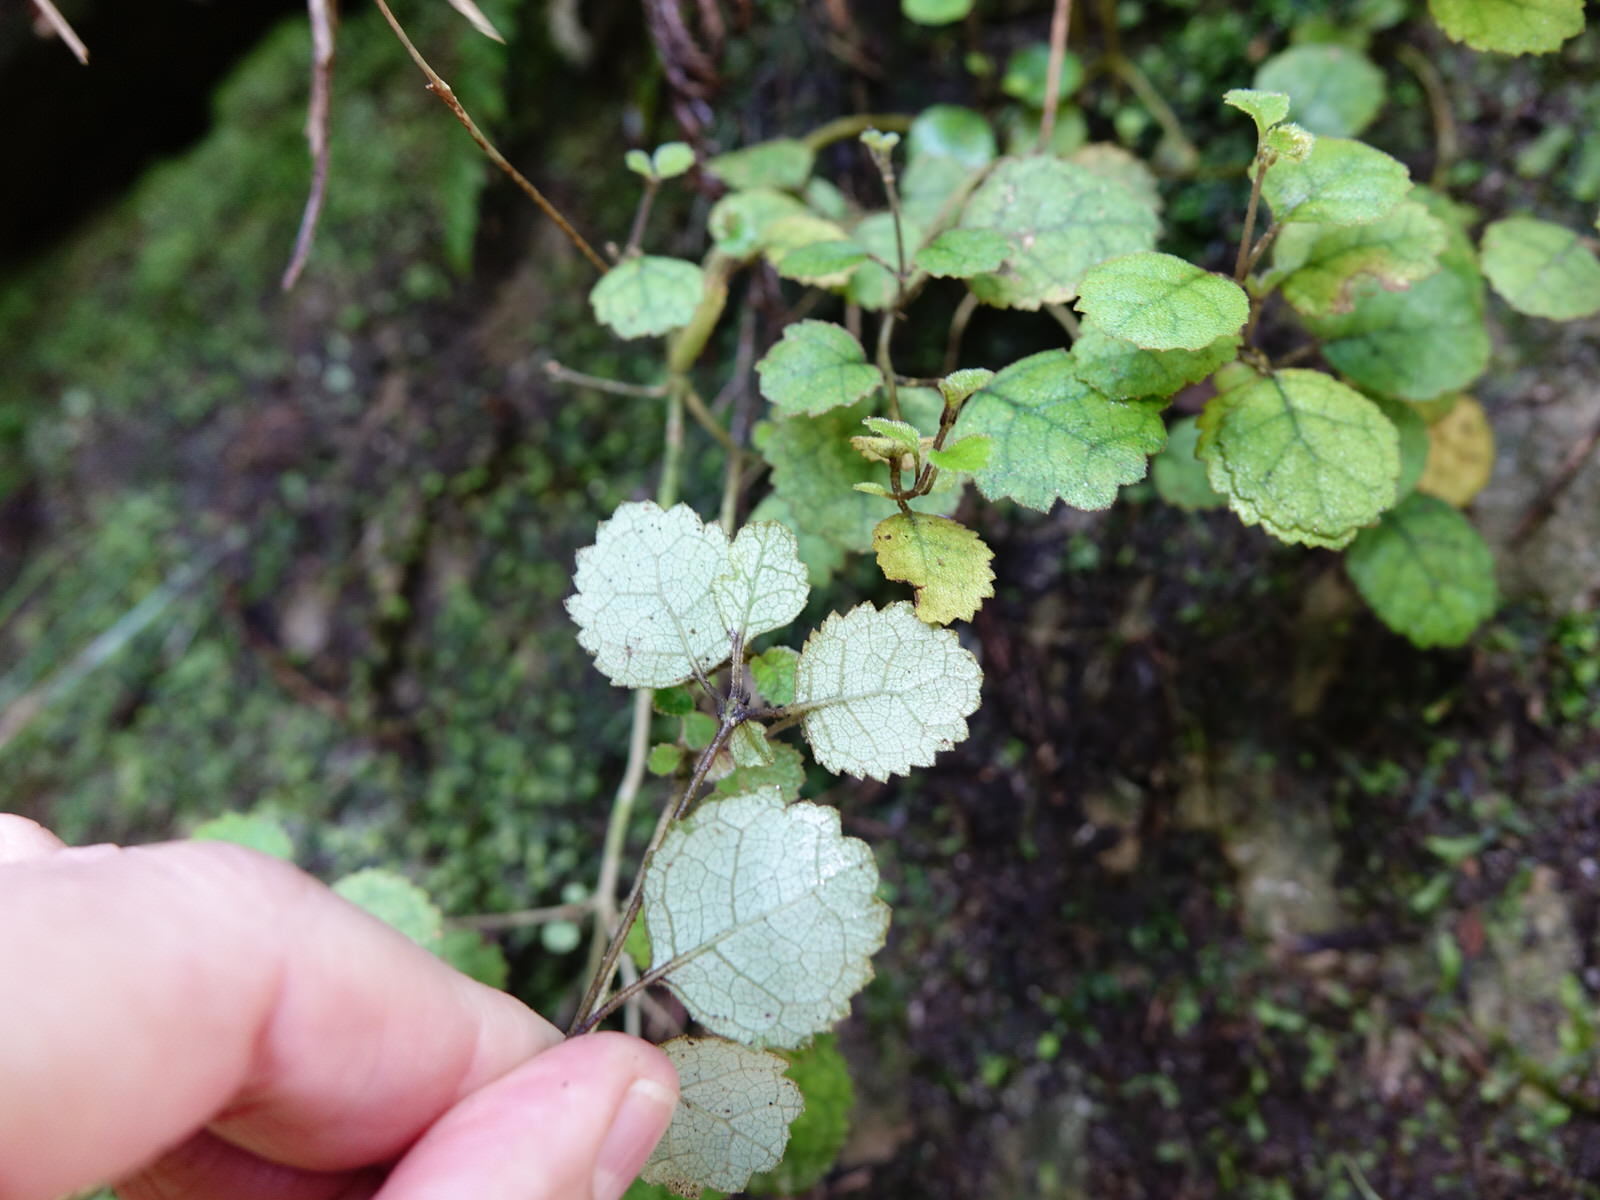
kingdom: Plantae
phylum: Tracheophyta
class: Magnoliopsida
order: Lamiales
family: Gesneriaceae
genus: Rhabdothamnus
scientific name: Rhabdothamnus solandri
